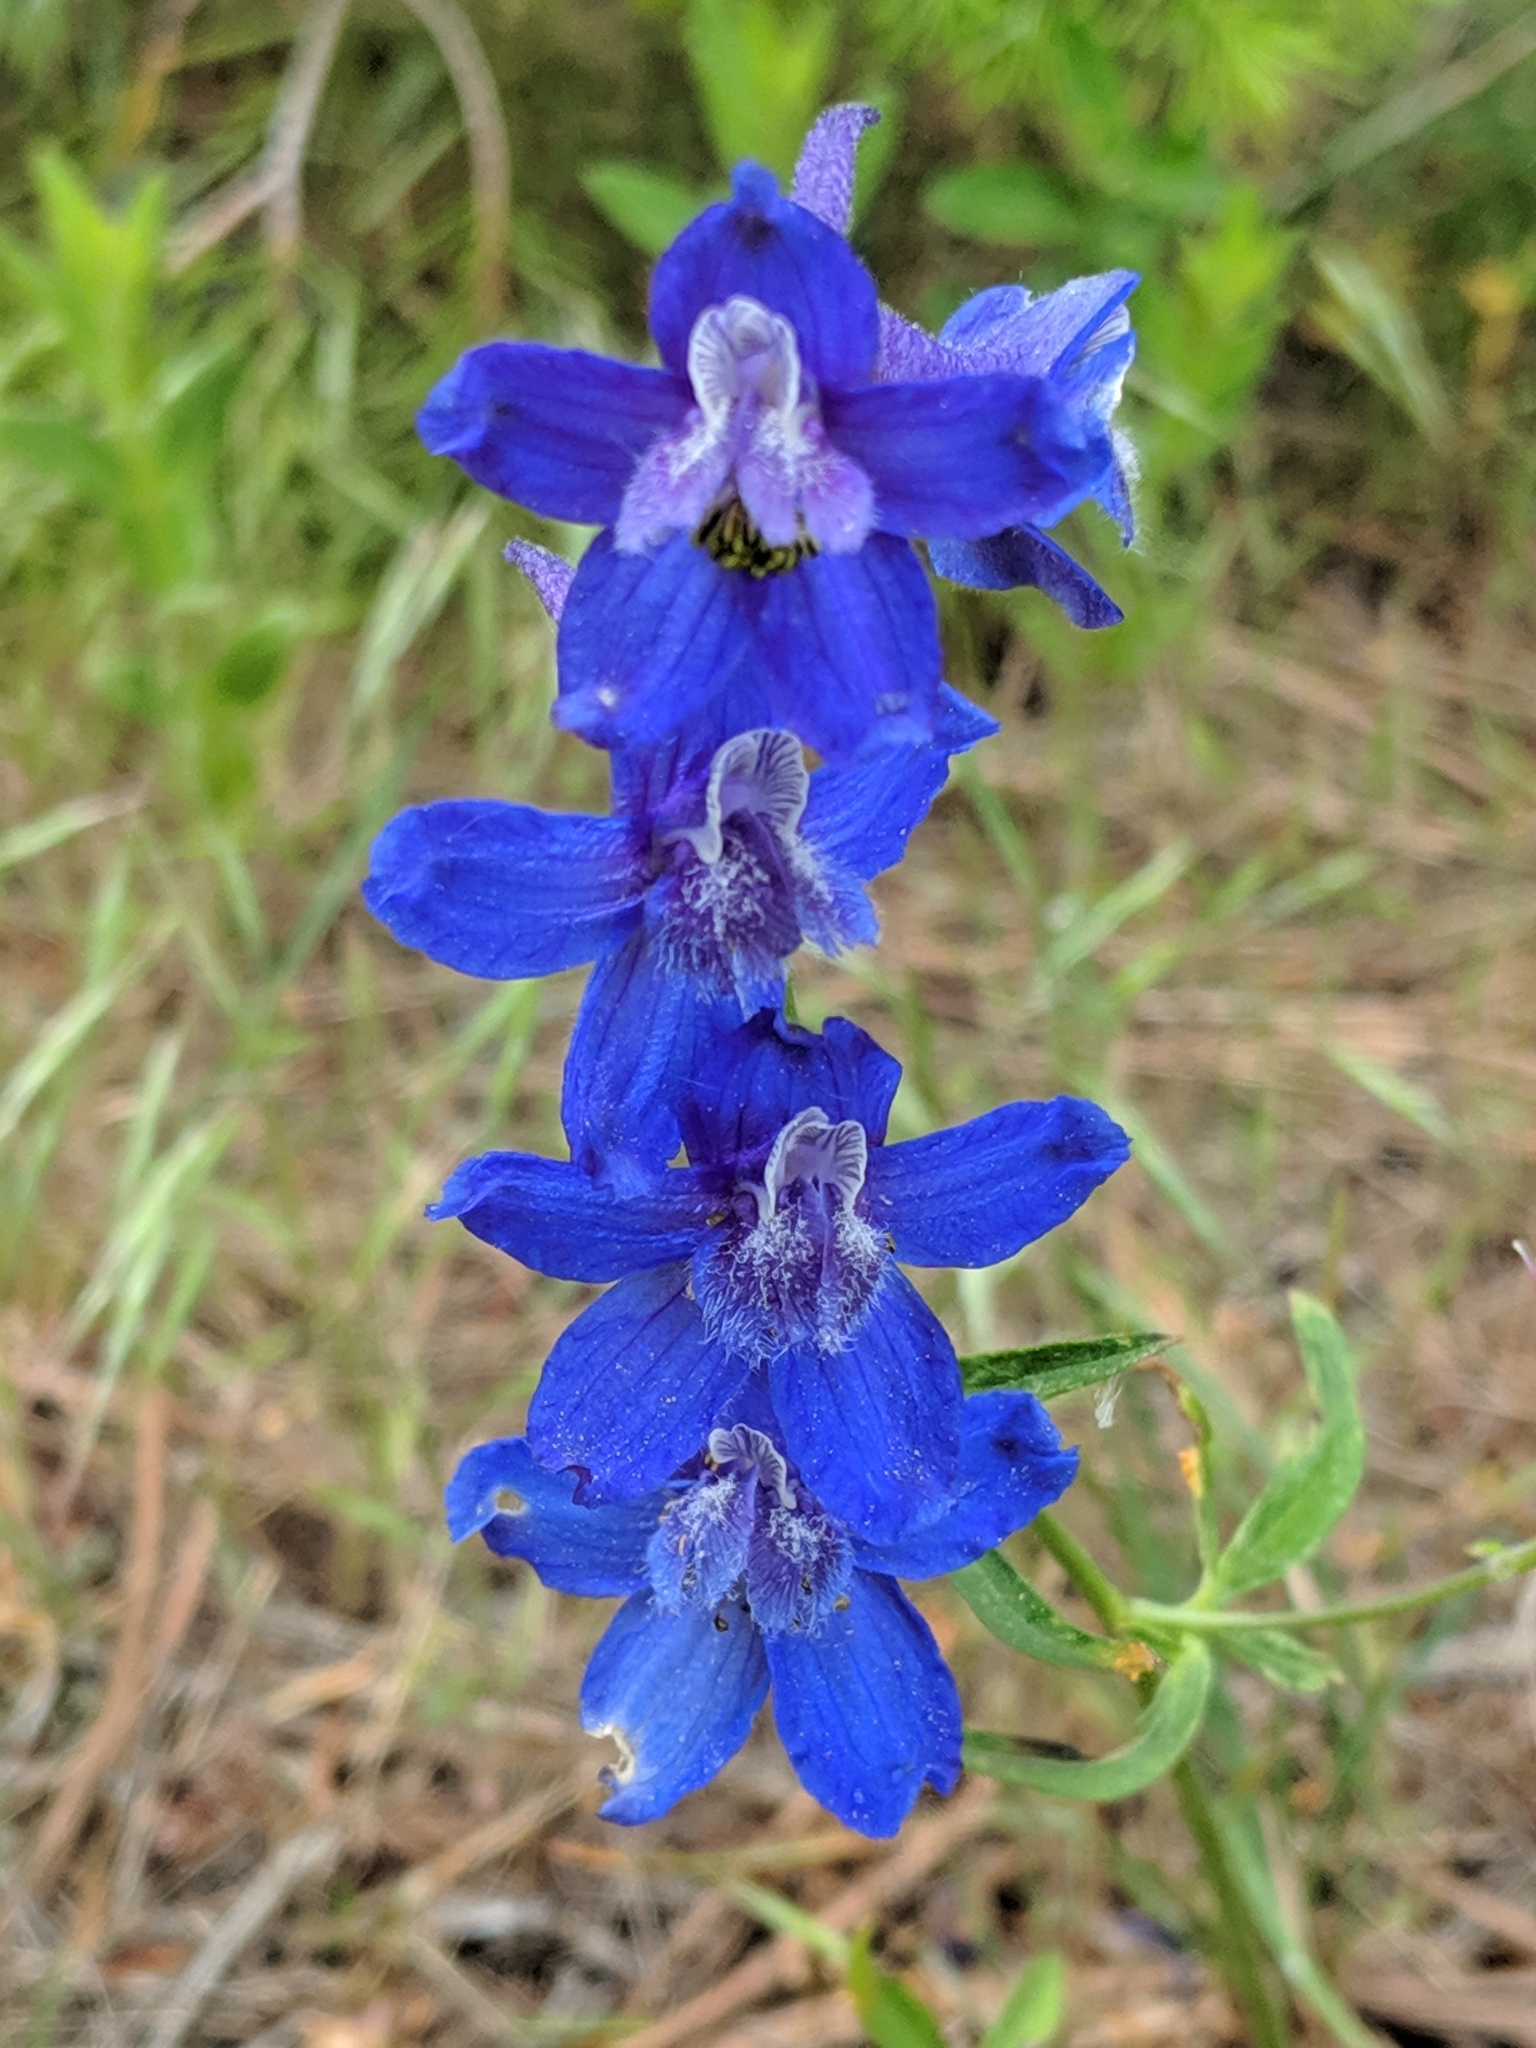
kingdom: Plantae
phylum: Tracheophyta
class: Magnoliopsida
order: Ranunculales
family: Ranunculaceae
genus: Delphinium
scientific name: Delphinium nuttallianum
